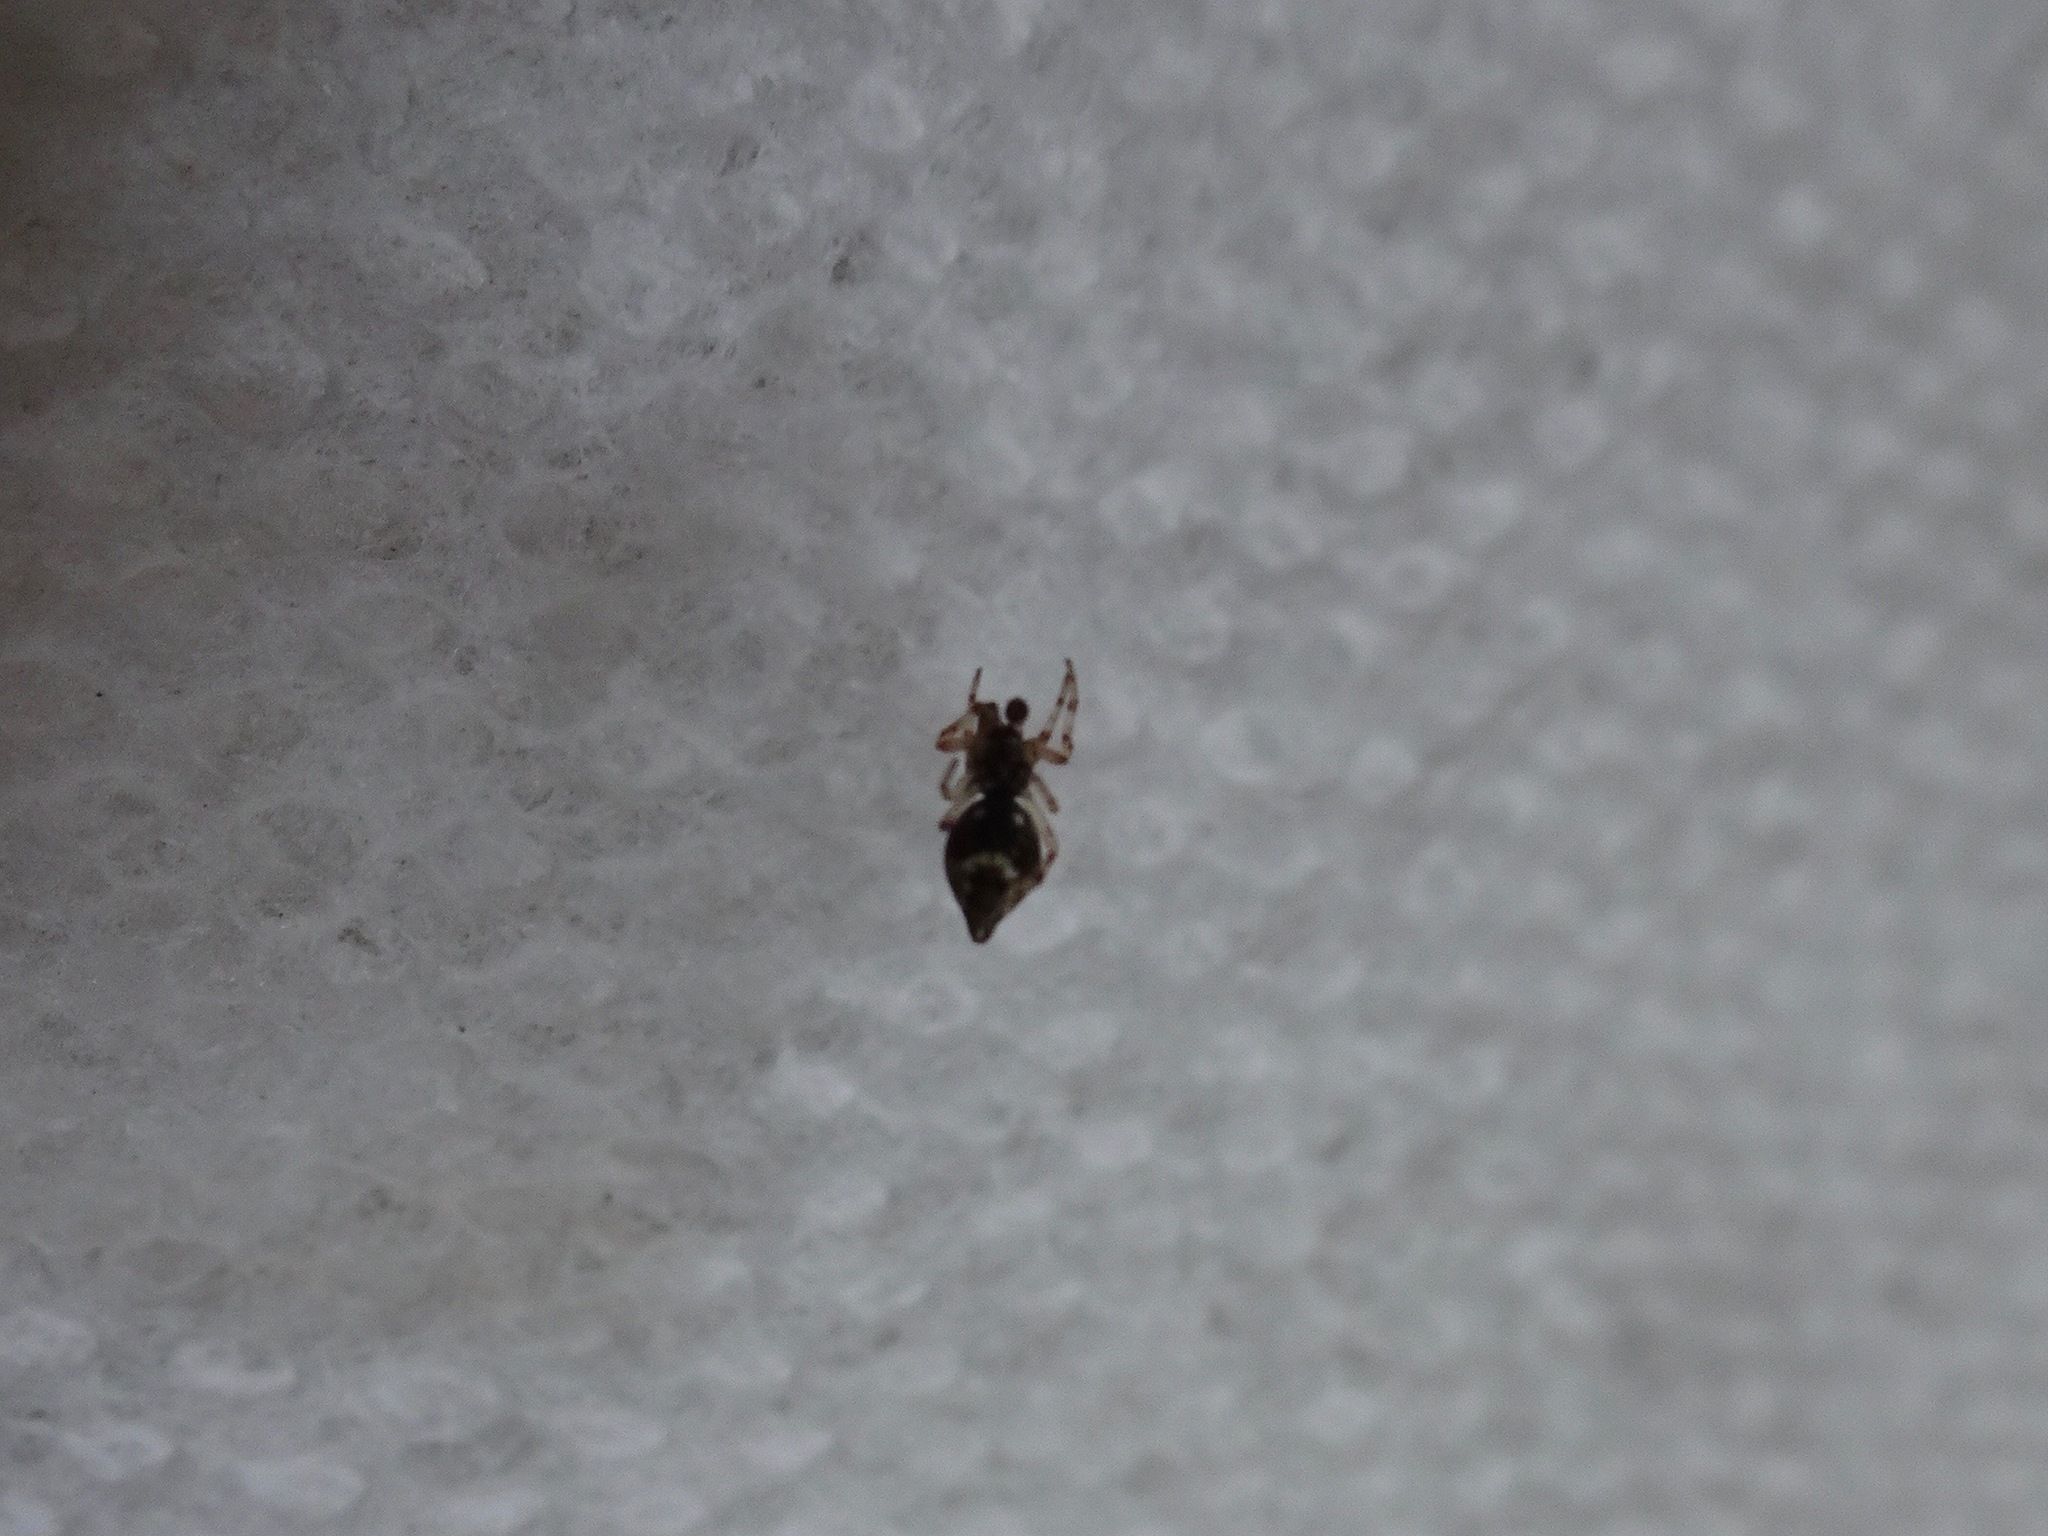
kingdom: Animalia
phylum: Arthropoda
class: Arachnida
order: Araneae
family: Araneidae
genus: Cyclosa
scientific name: Cyclosa turbinata
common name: Orb weavers
